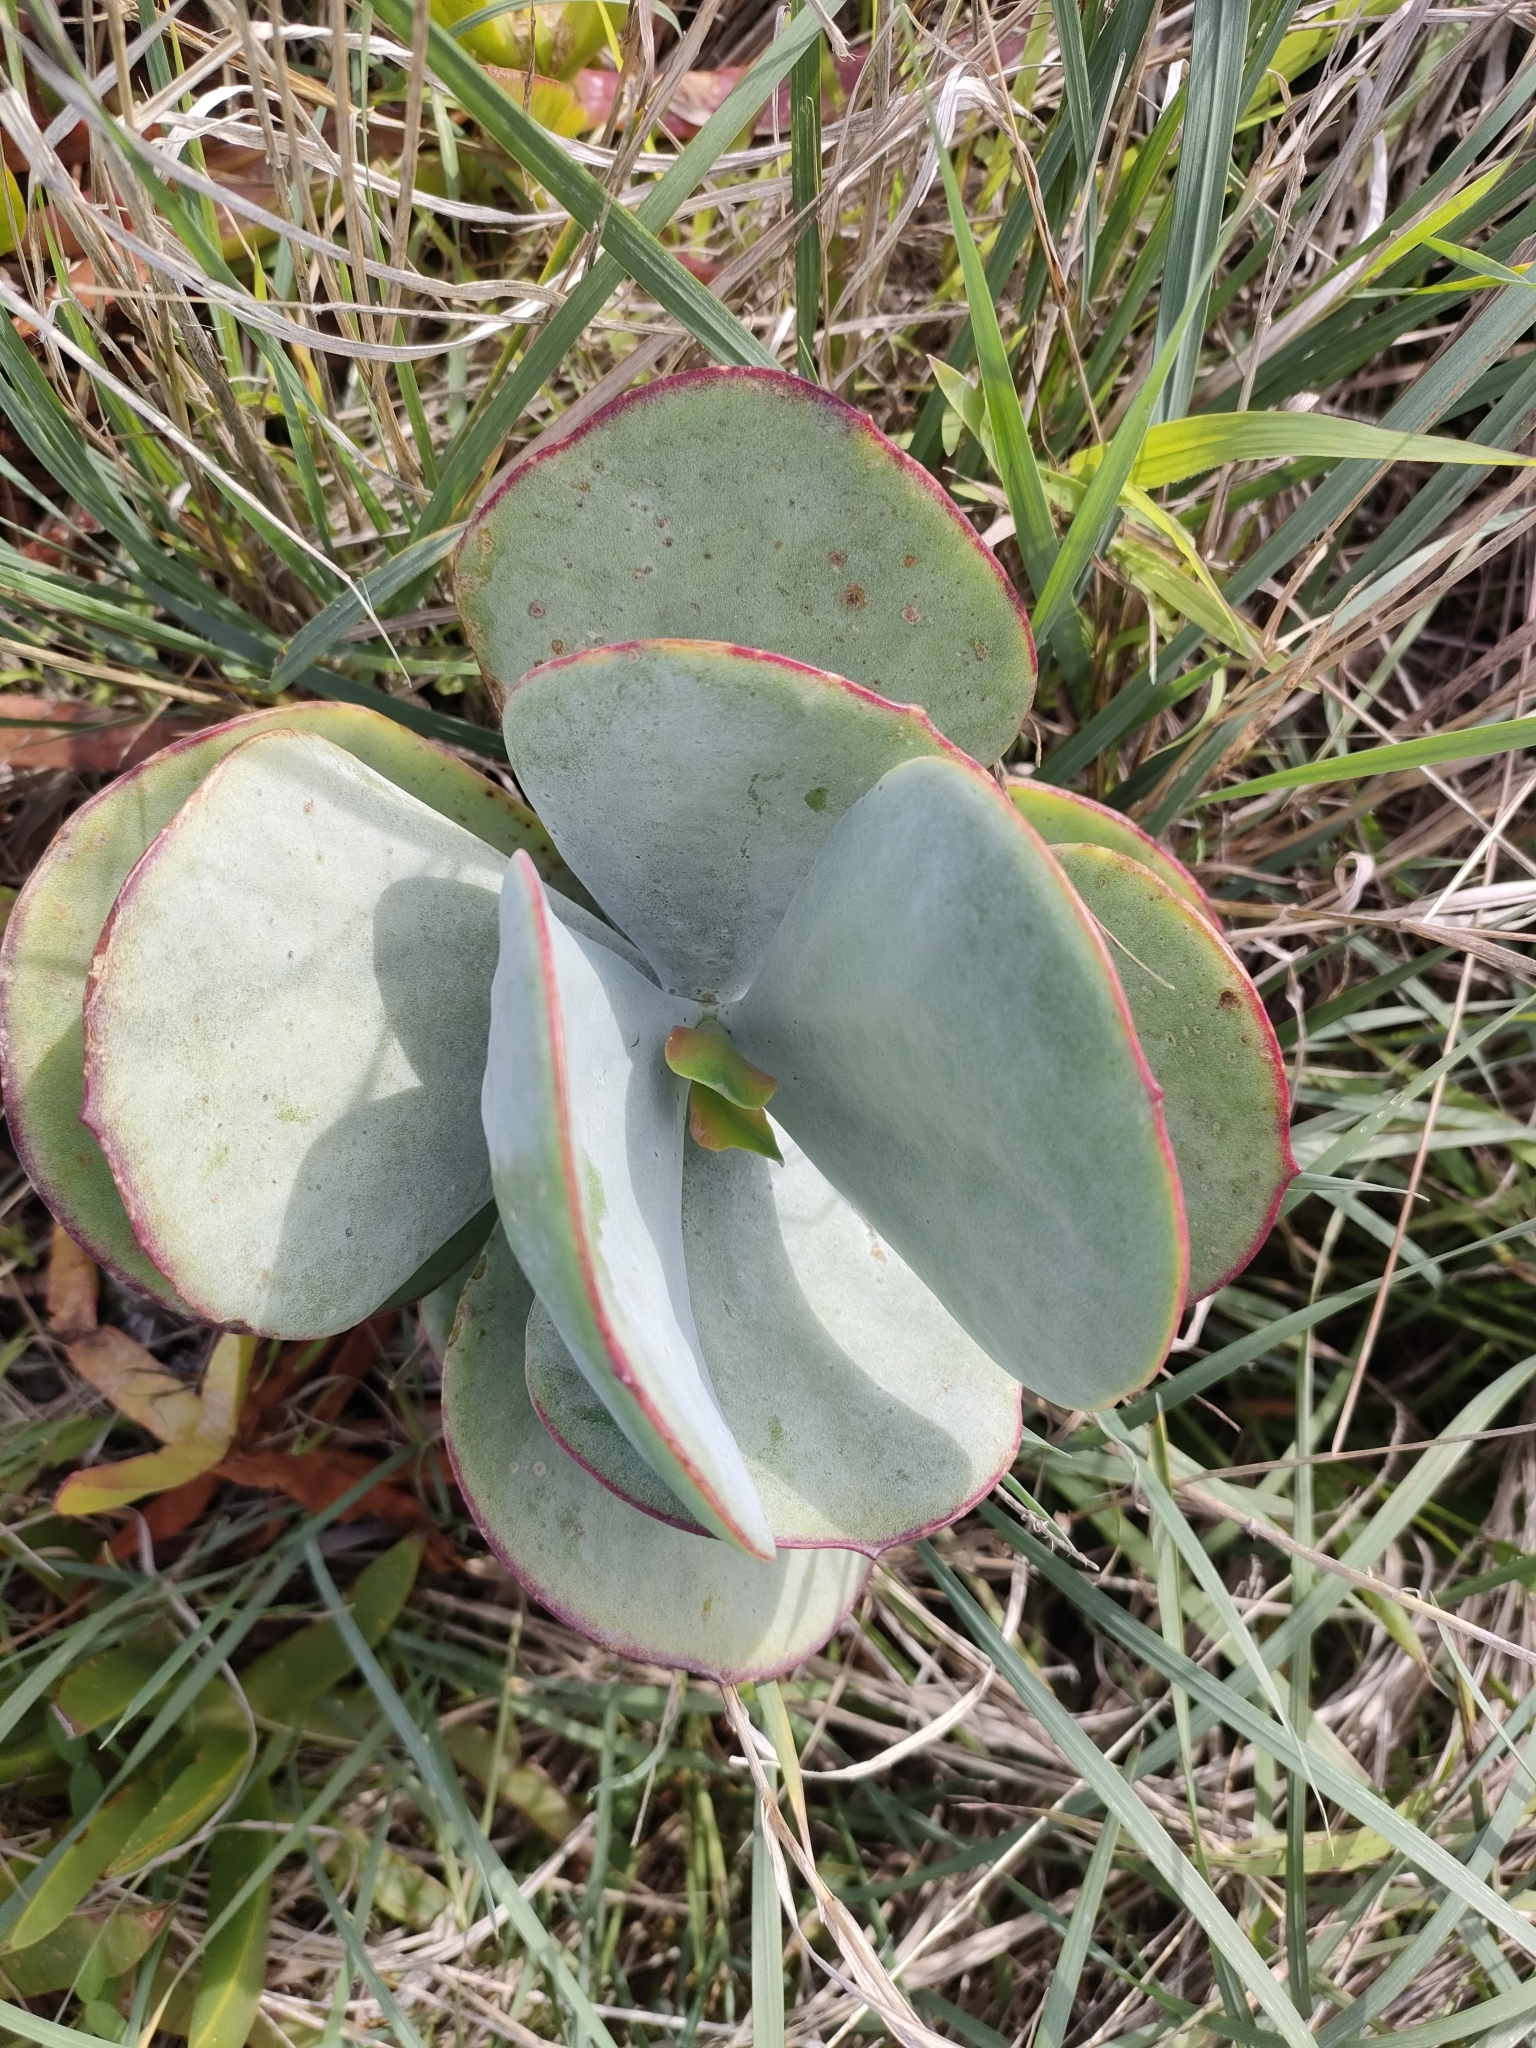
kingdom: Plantae
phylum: Tracheophyta
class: Magnoliopsida
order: Saxifragales
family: Crassulaceae
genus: Cotyledon
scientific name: Cotyledon orbiculata
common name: Pig's ear
